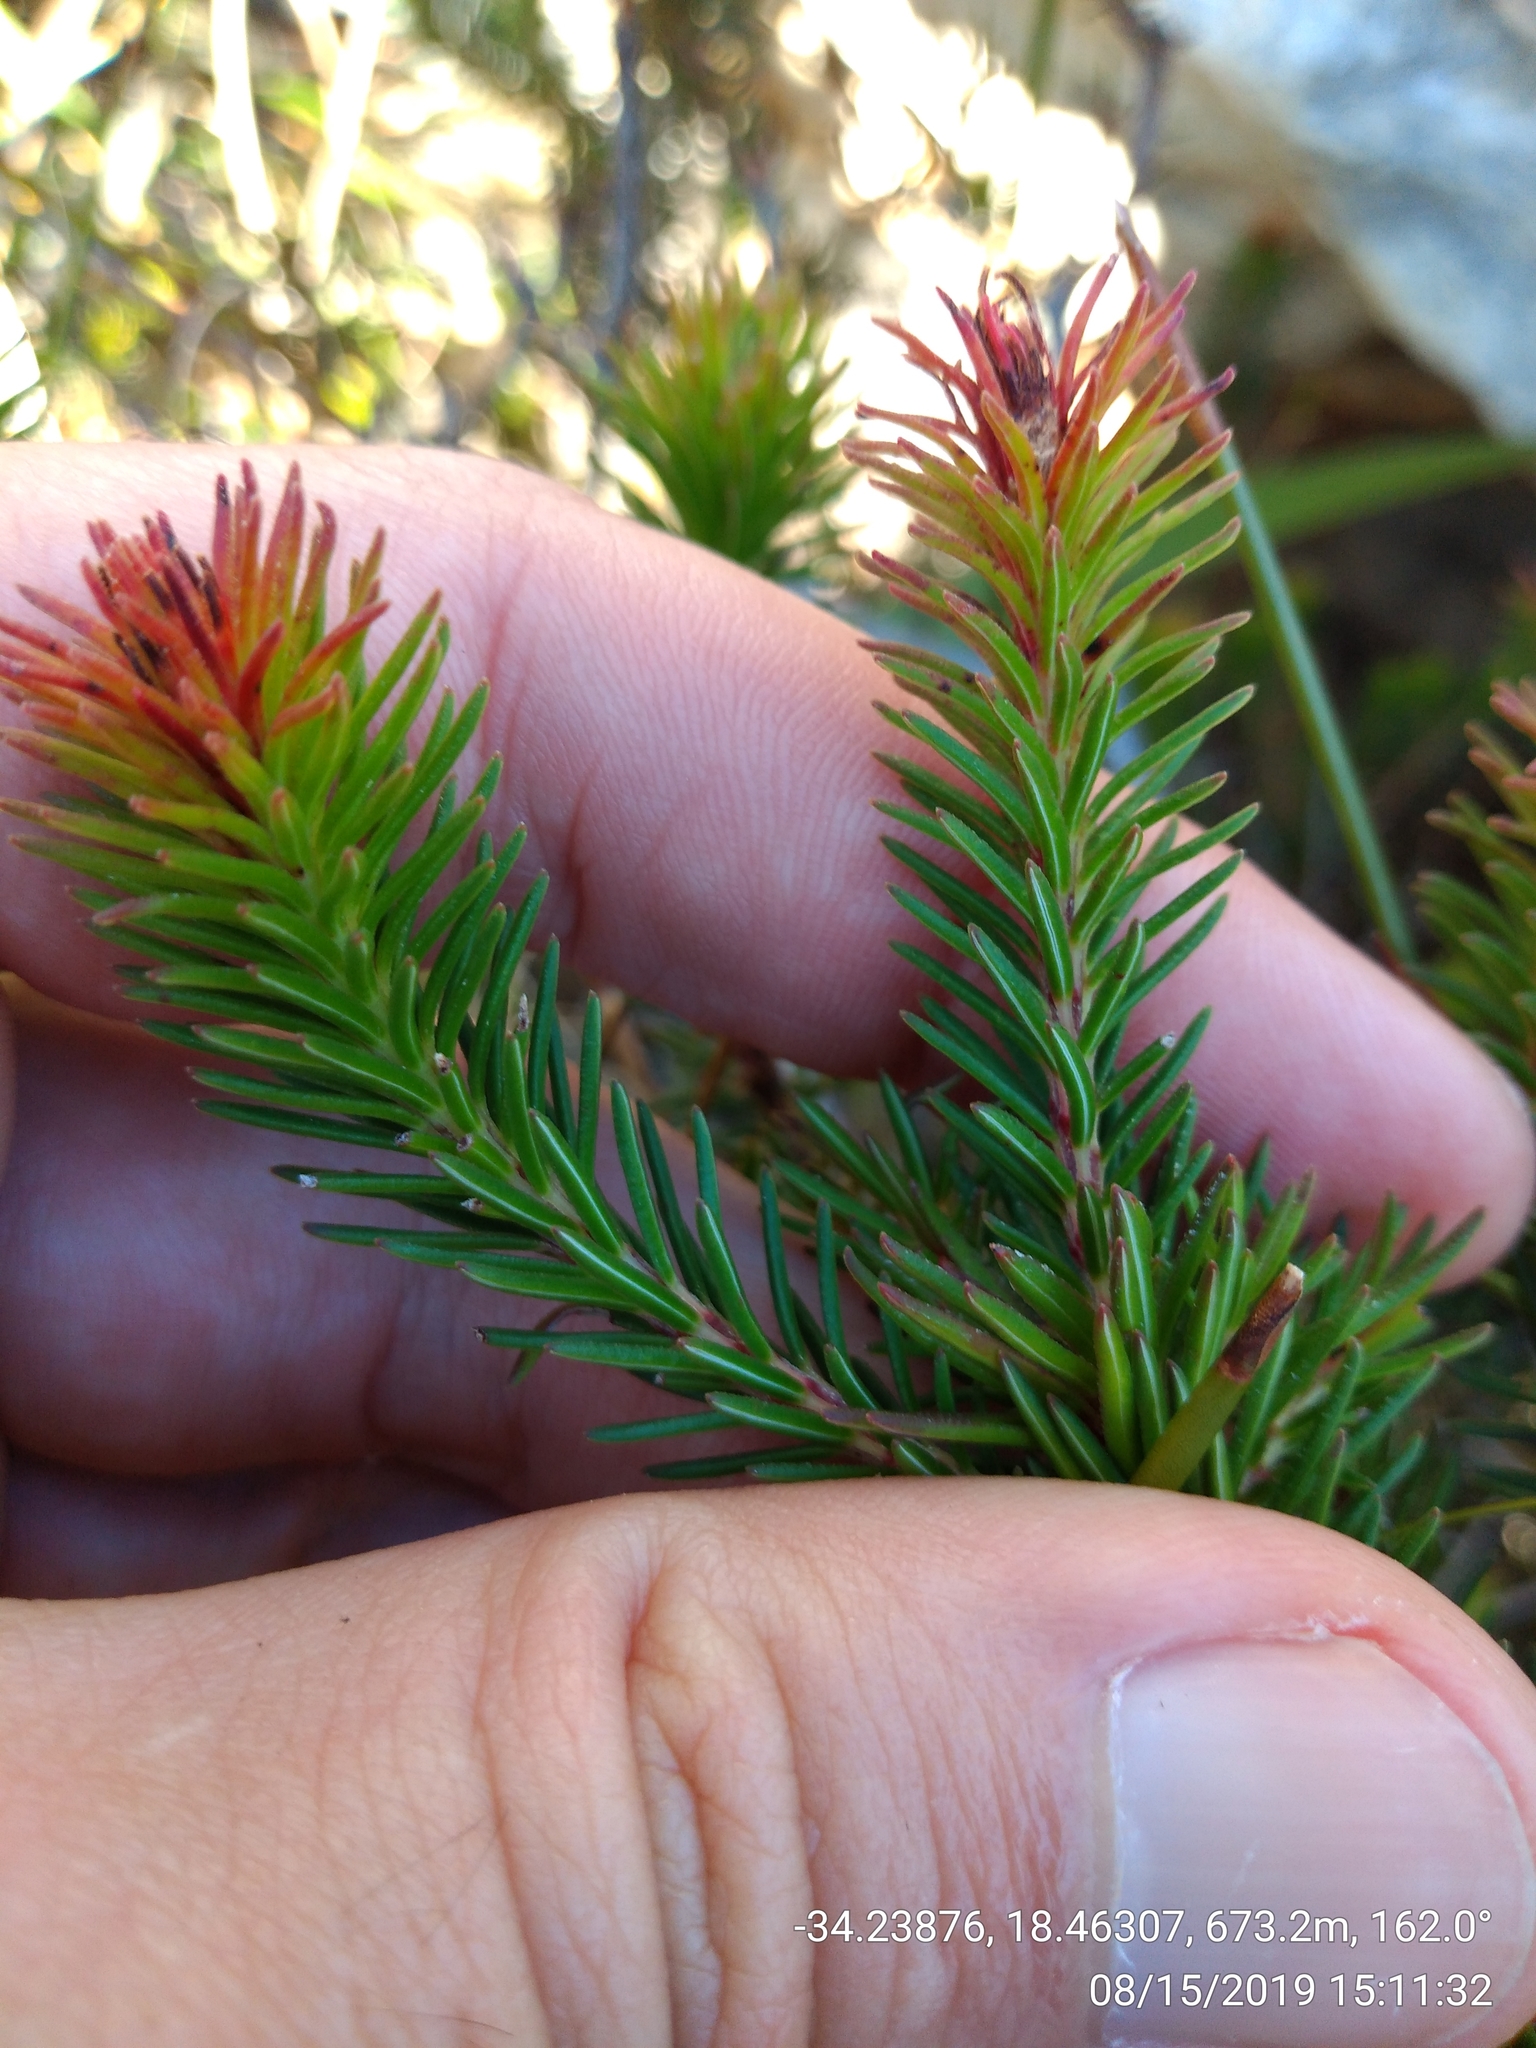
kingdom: Plantae
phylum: Tracheophyta
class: Magnoliopsida
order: Ericales
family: Ericaceae
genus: Erica
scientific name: Erica quadrisulcata
